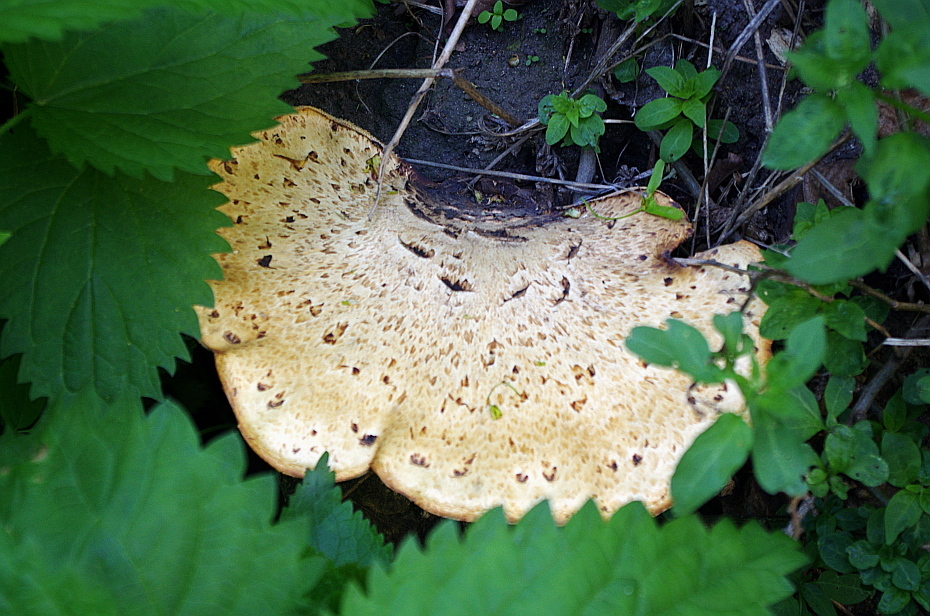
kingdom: Fungi
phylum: Basidiomycota
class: Agaricomycetes
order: Polyporales
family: Polyporaceae
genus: Cerioporus
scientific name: Cerioporus squamosus
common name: Dryad's saddle
